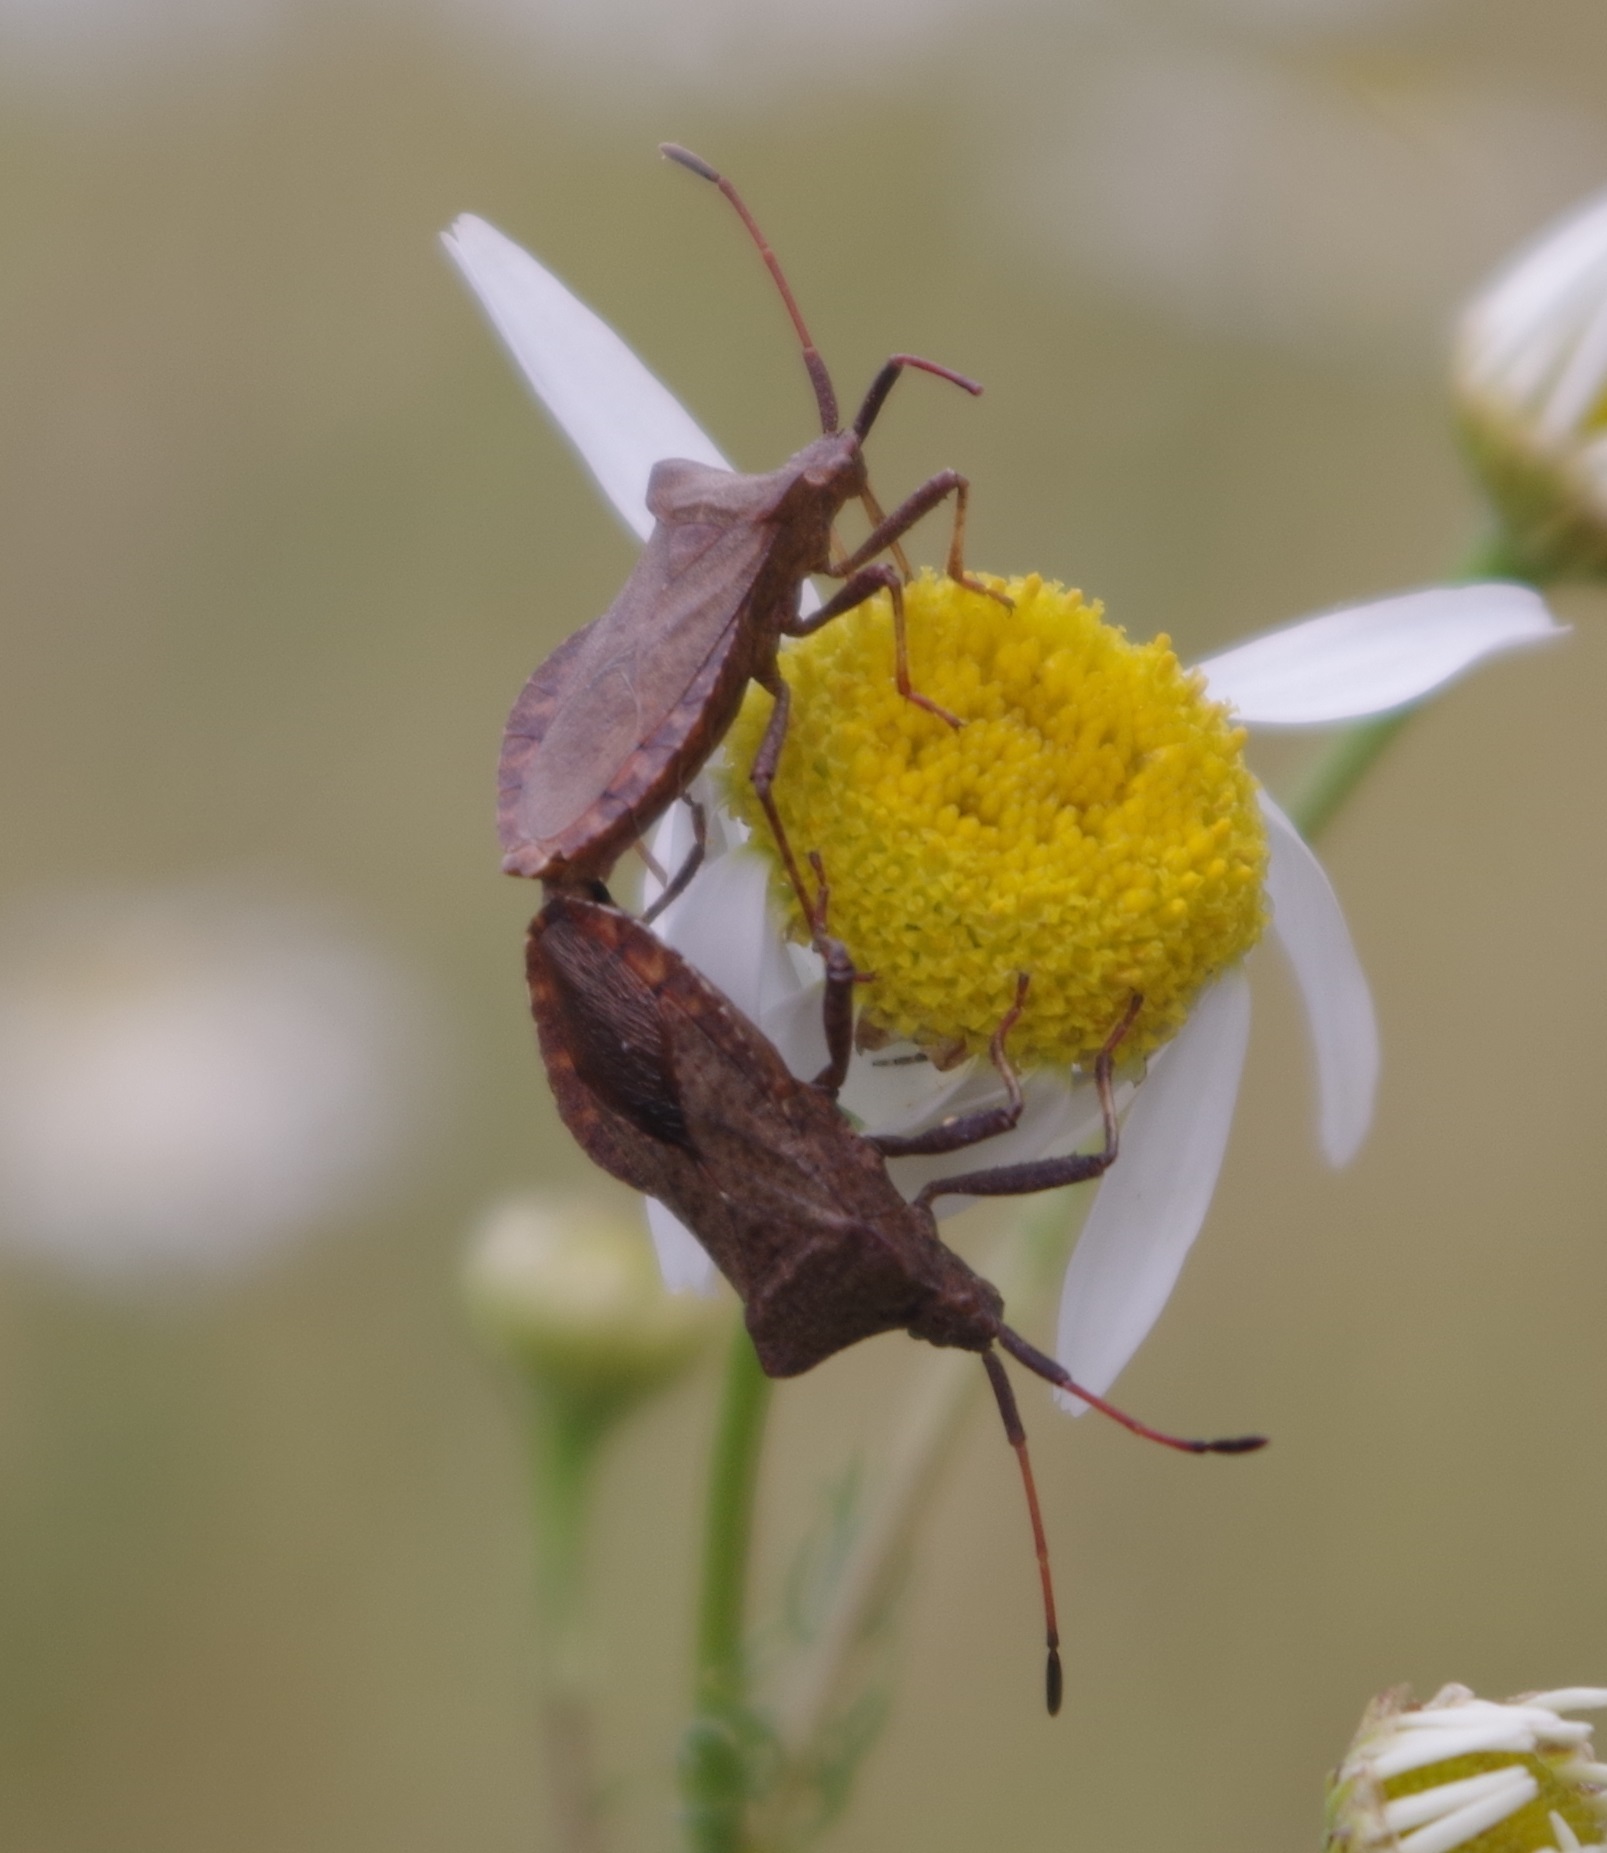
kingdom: Animalia
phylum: Arthropoda
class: Insecta
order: Hemiptera
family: Coreidae
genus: Coreus
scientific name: Coreus marginatus
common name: Dock bug
